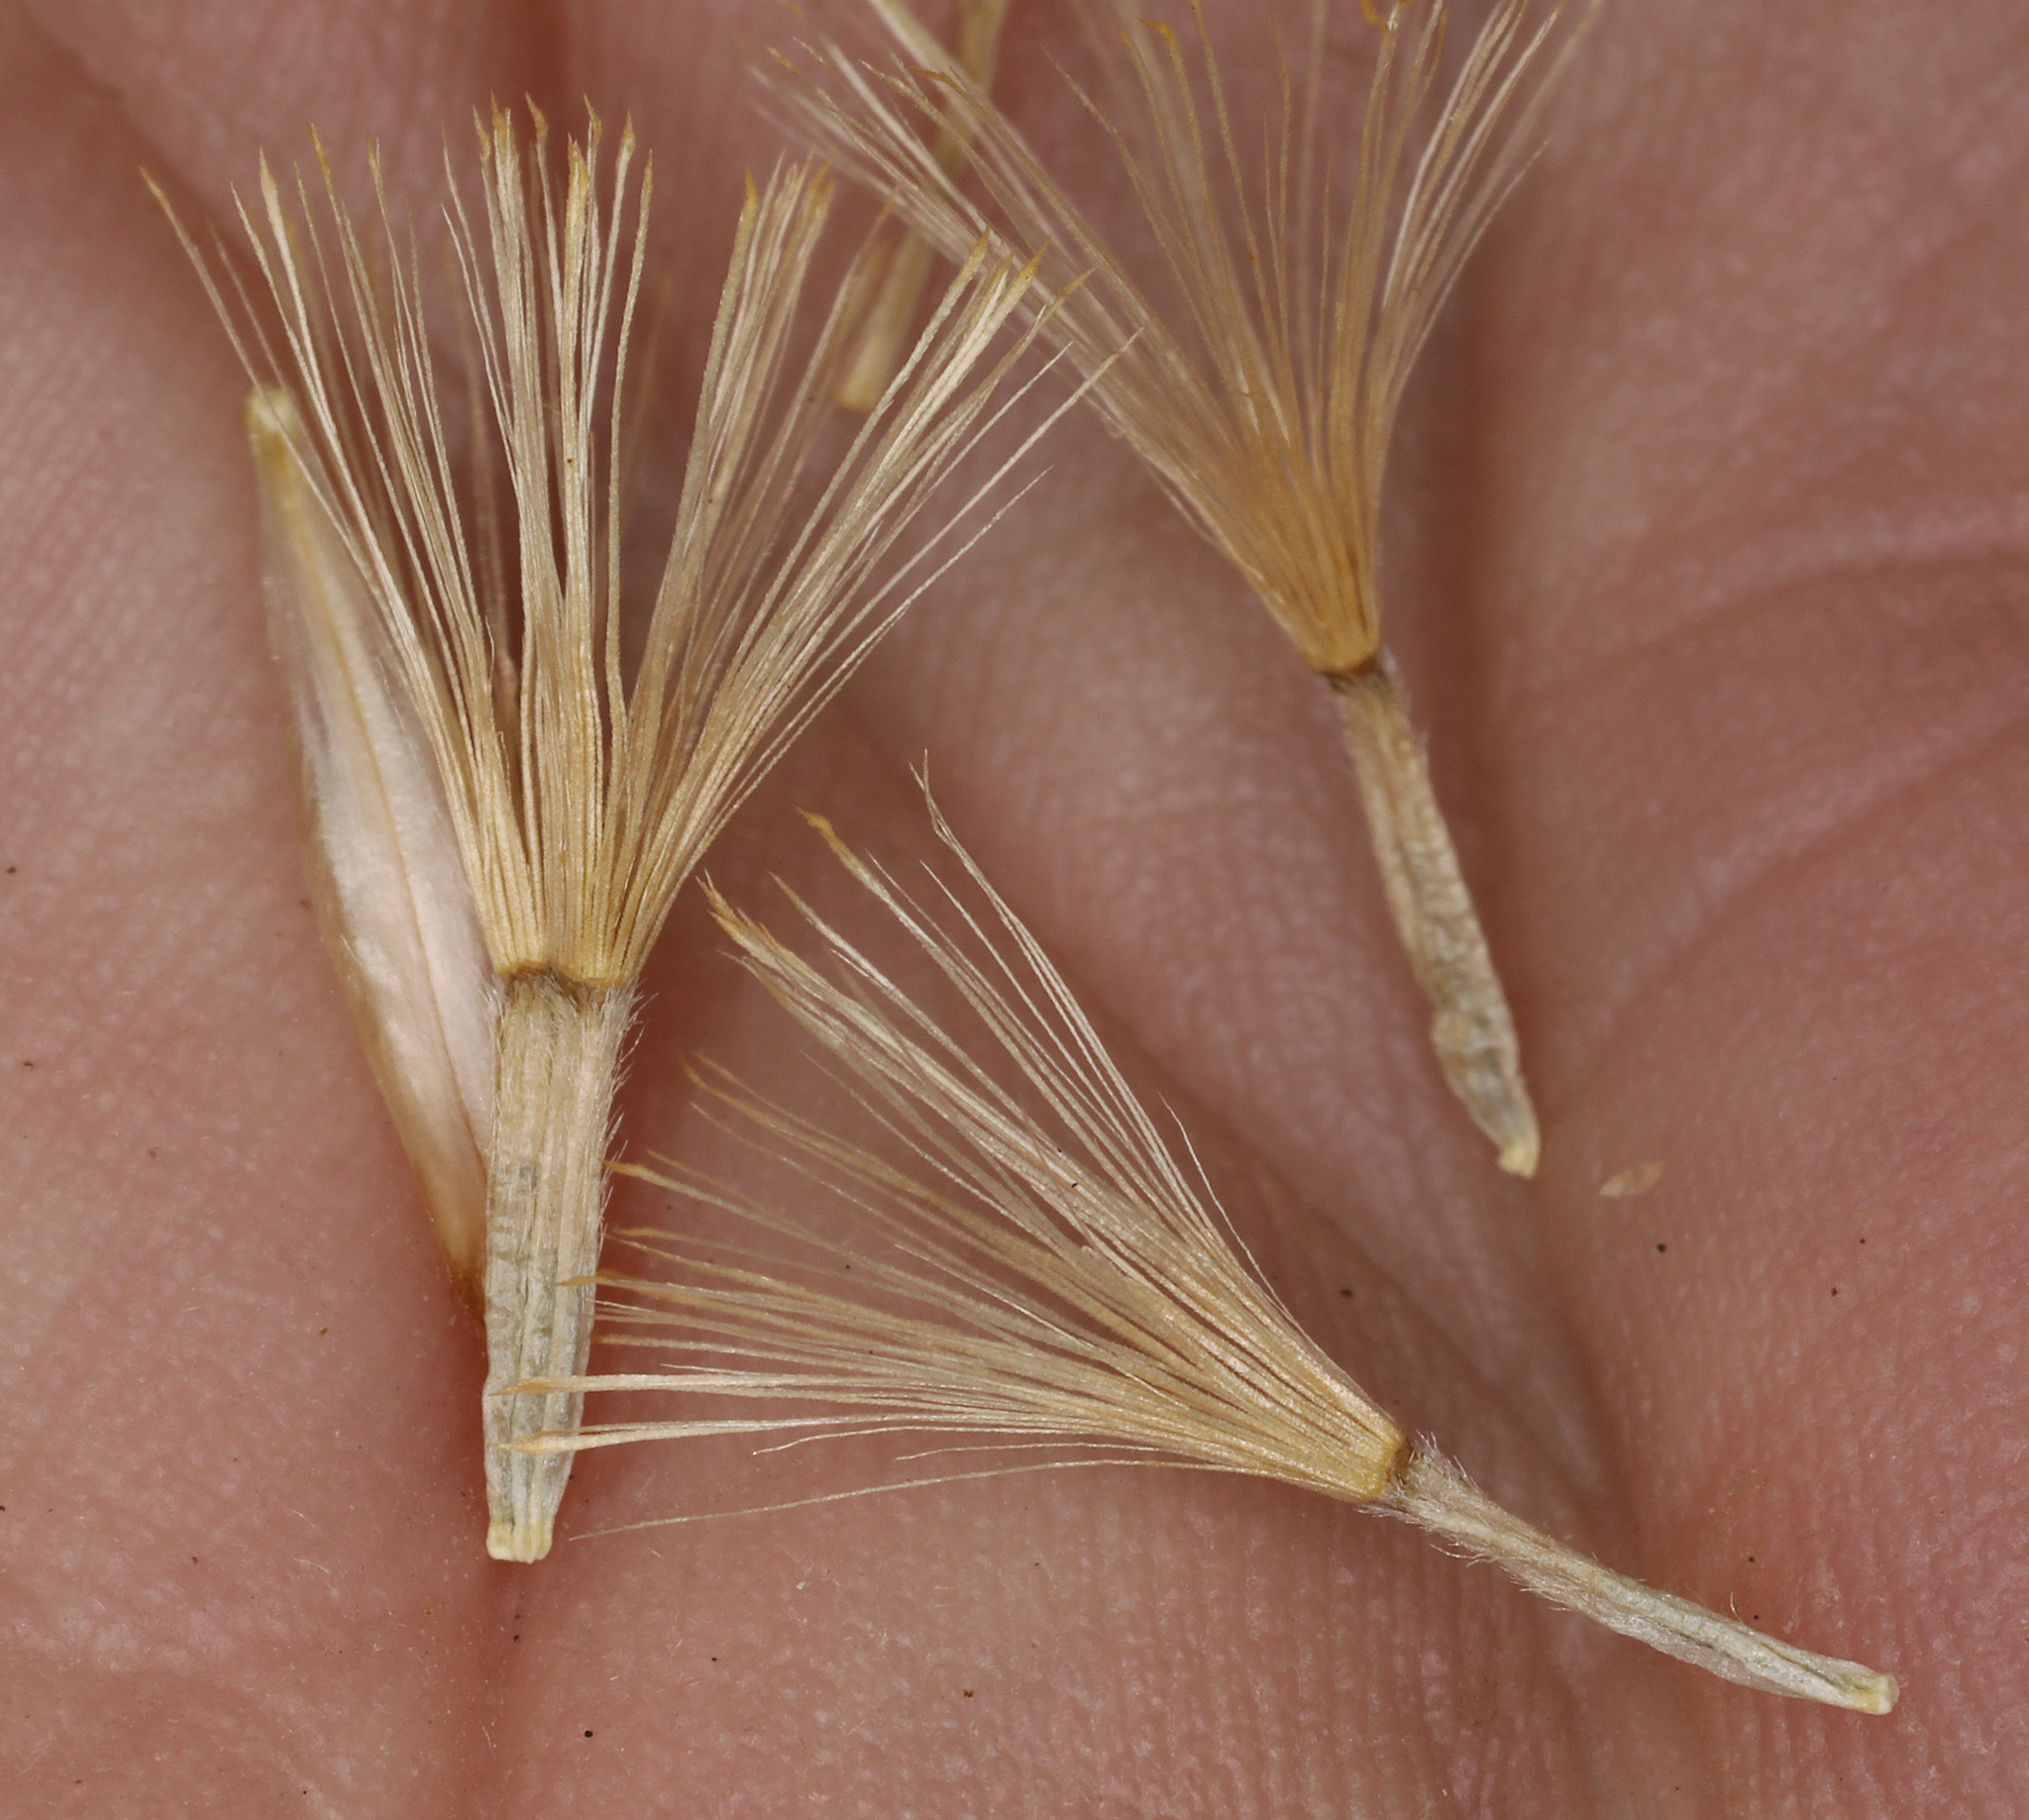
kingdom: Plantae
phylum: Tracheophyta
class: Magnoliopsida
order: Asterales
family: Asteraceae
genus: Cuniculotinus
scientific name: Cuniculotinus gramineus
